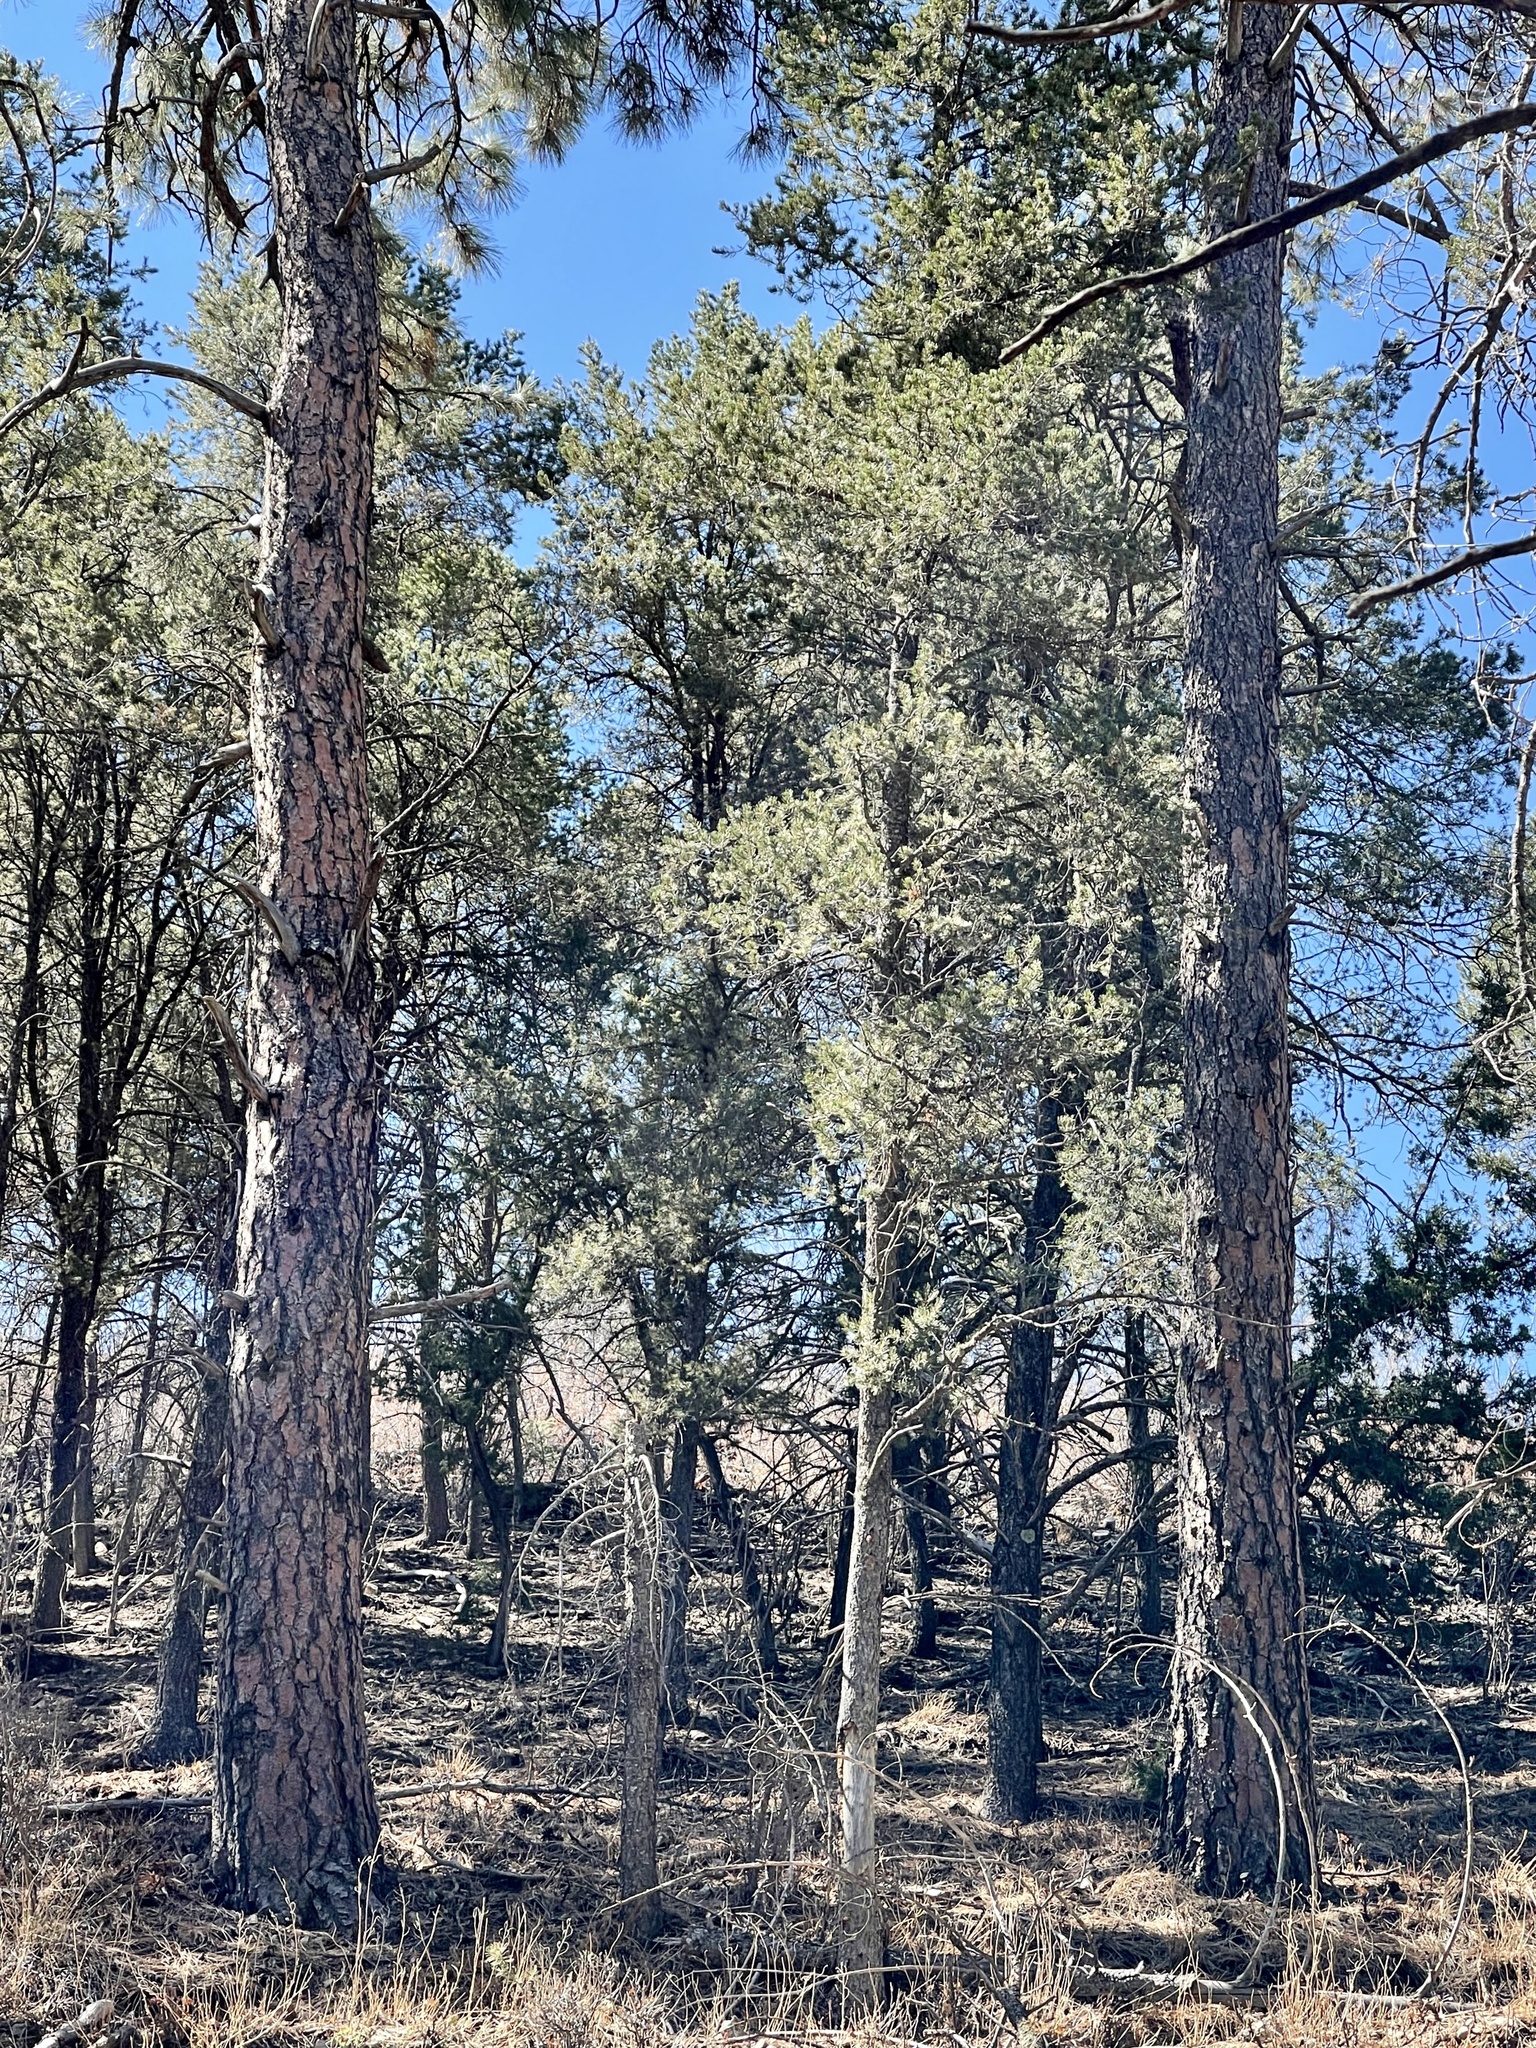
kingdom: Plantae
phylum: Tracheophyta
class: Pinopsida
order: Pinales
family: Pinaceae
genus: Pinus
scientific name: Pinus ponderosa
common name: Western yellow-pine
